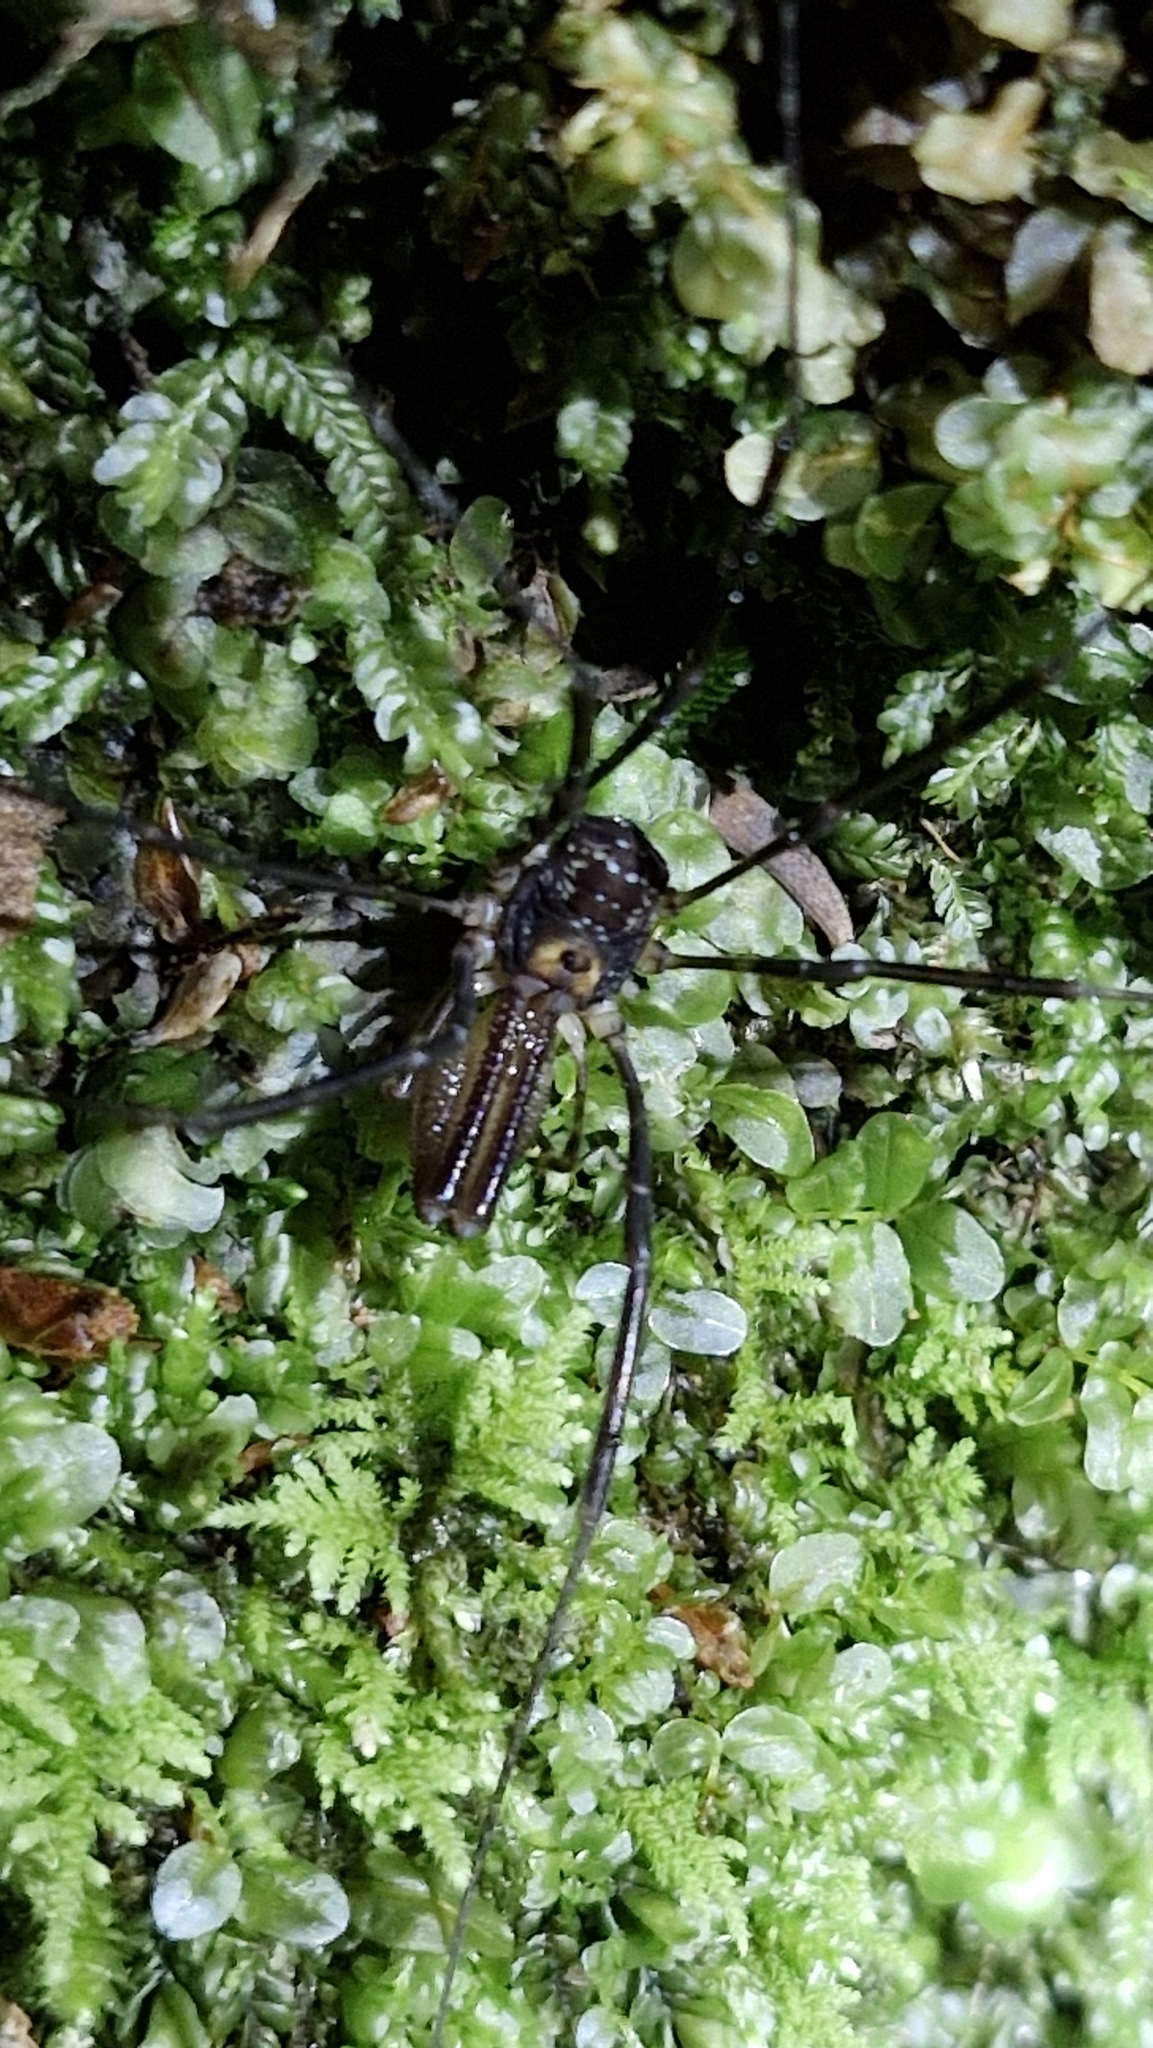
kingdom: Animalia
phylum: Arthropoda
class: Arachnida
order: Opiliones
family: Neopilionidae
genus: Forsteropsalis
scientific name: Forsteropsalis fabulosa
